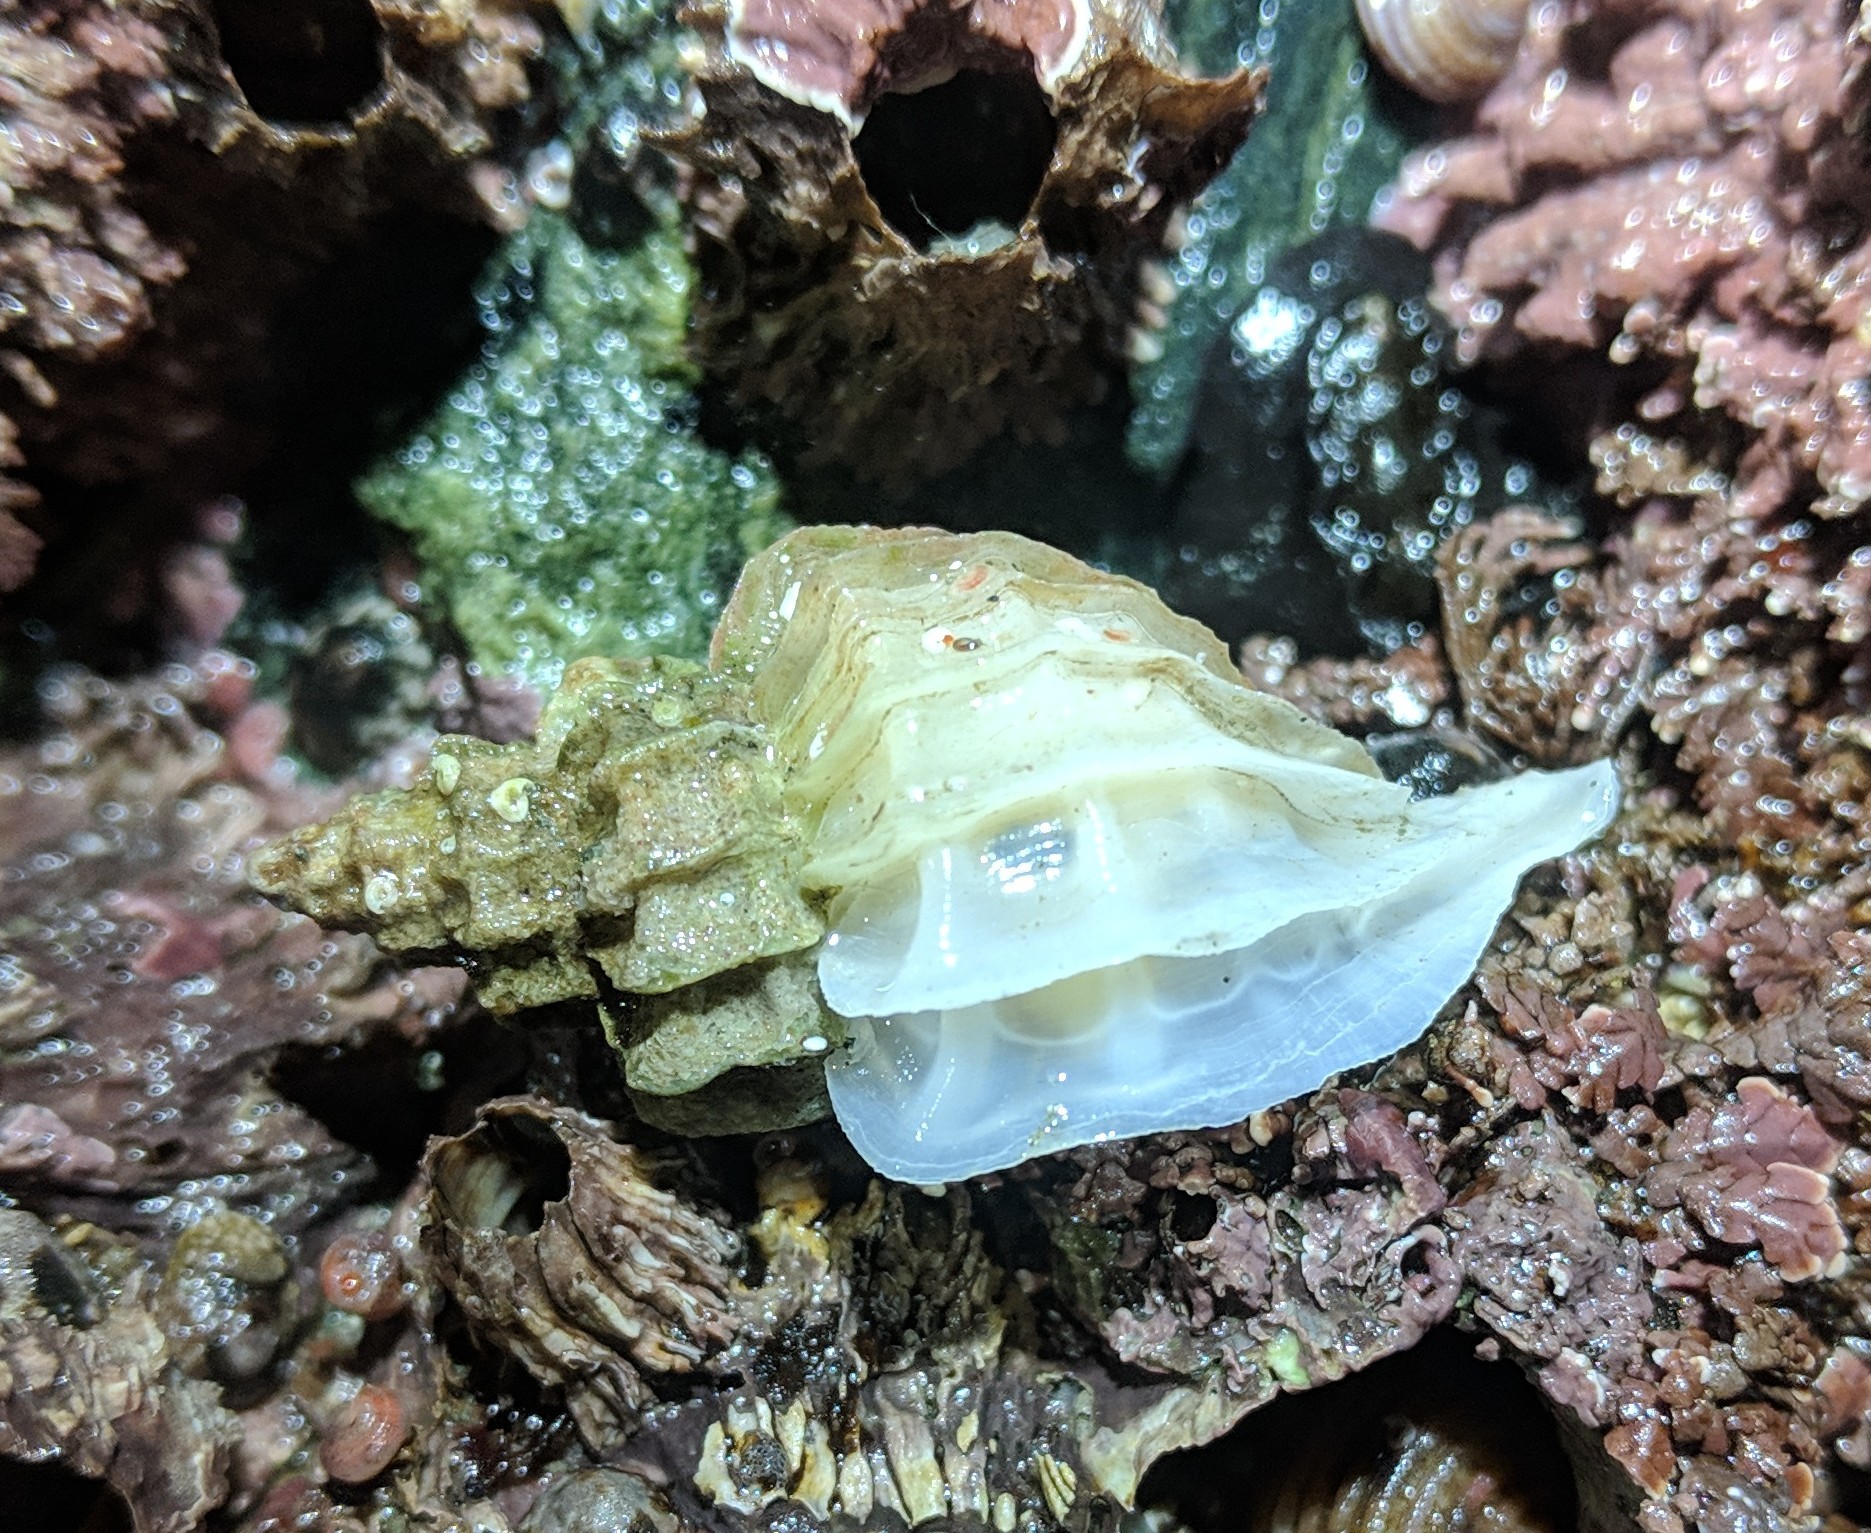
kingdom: Animalia
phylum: Mollusca
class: Gastropoda
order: Neogastropoda
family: Muricidae
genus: Scabrotrophon
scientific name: Scabrotrophon stuarti
